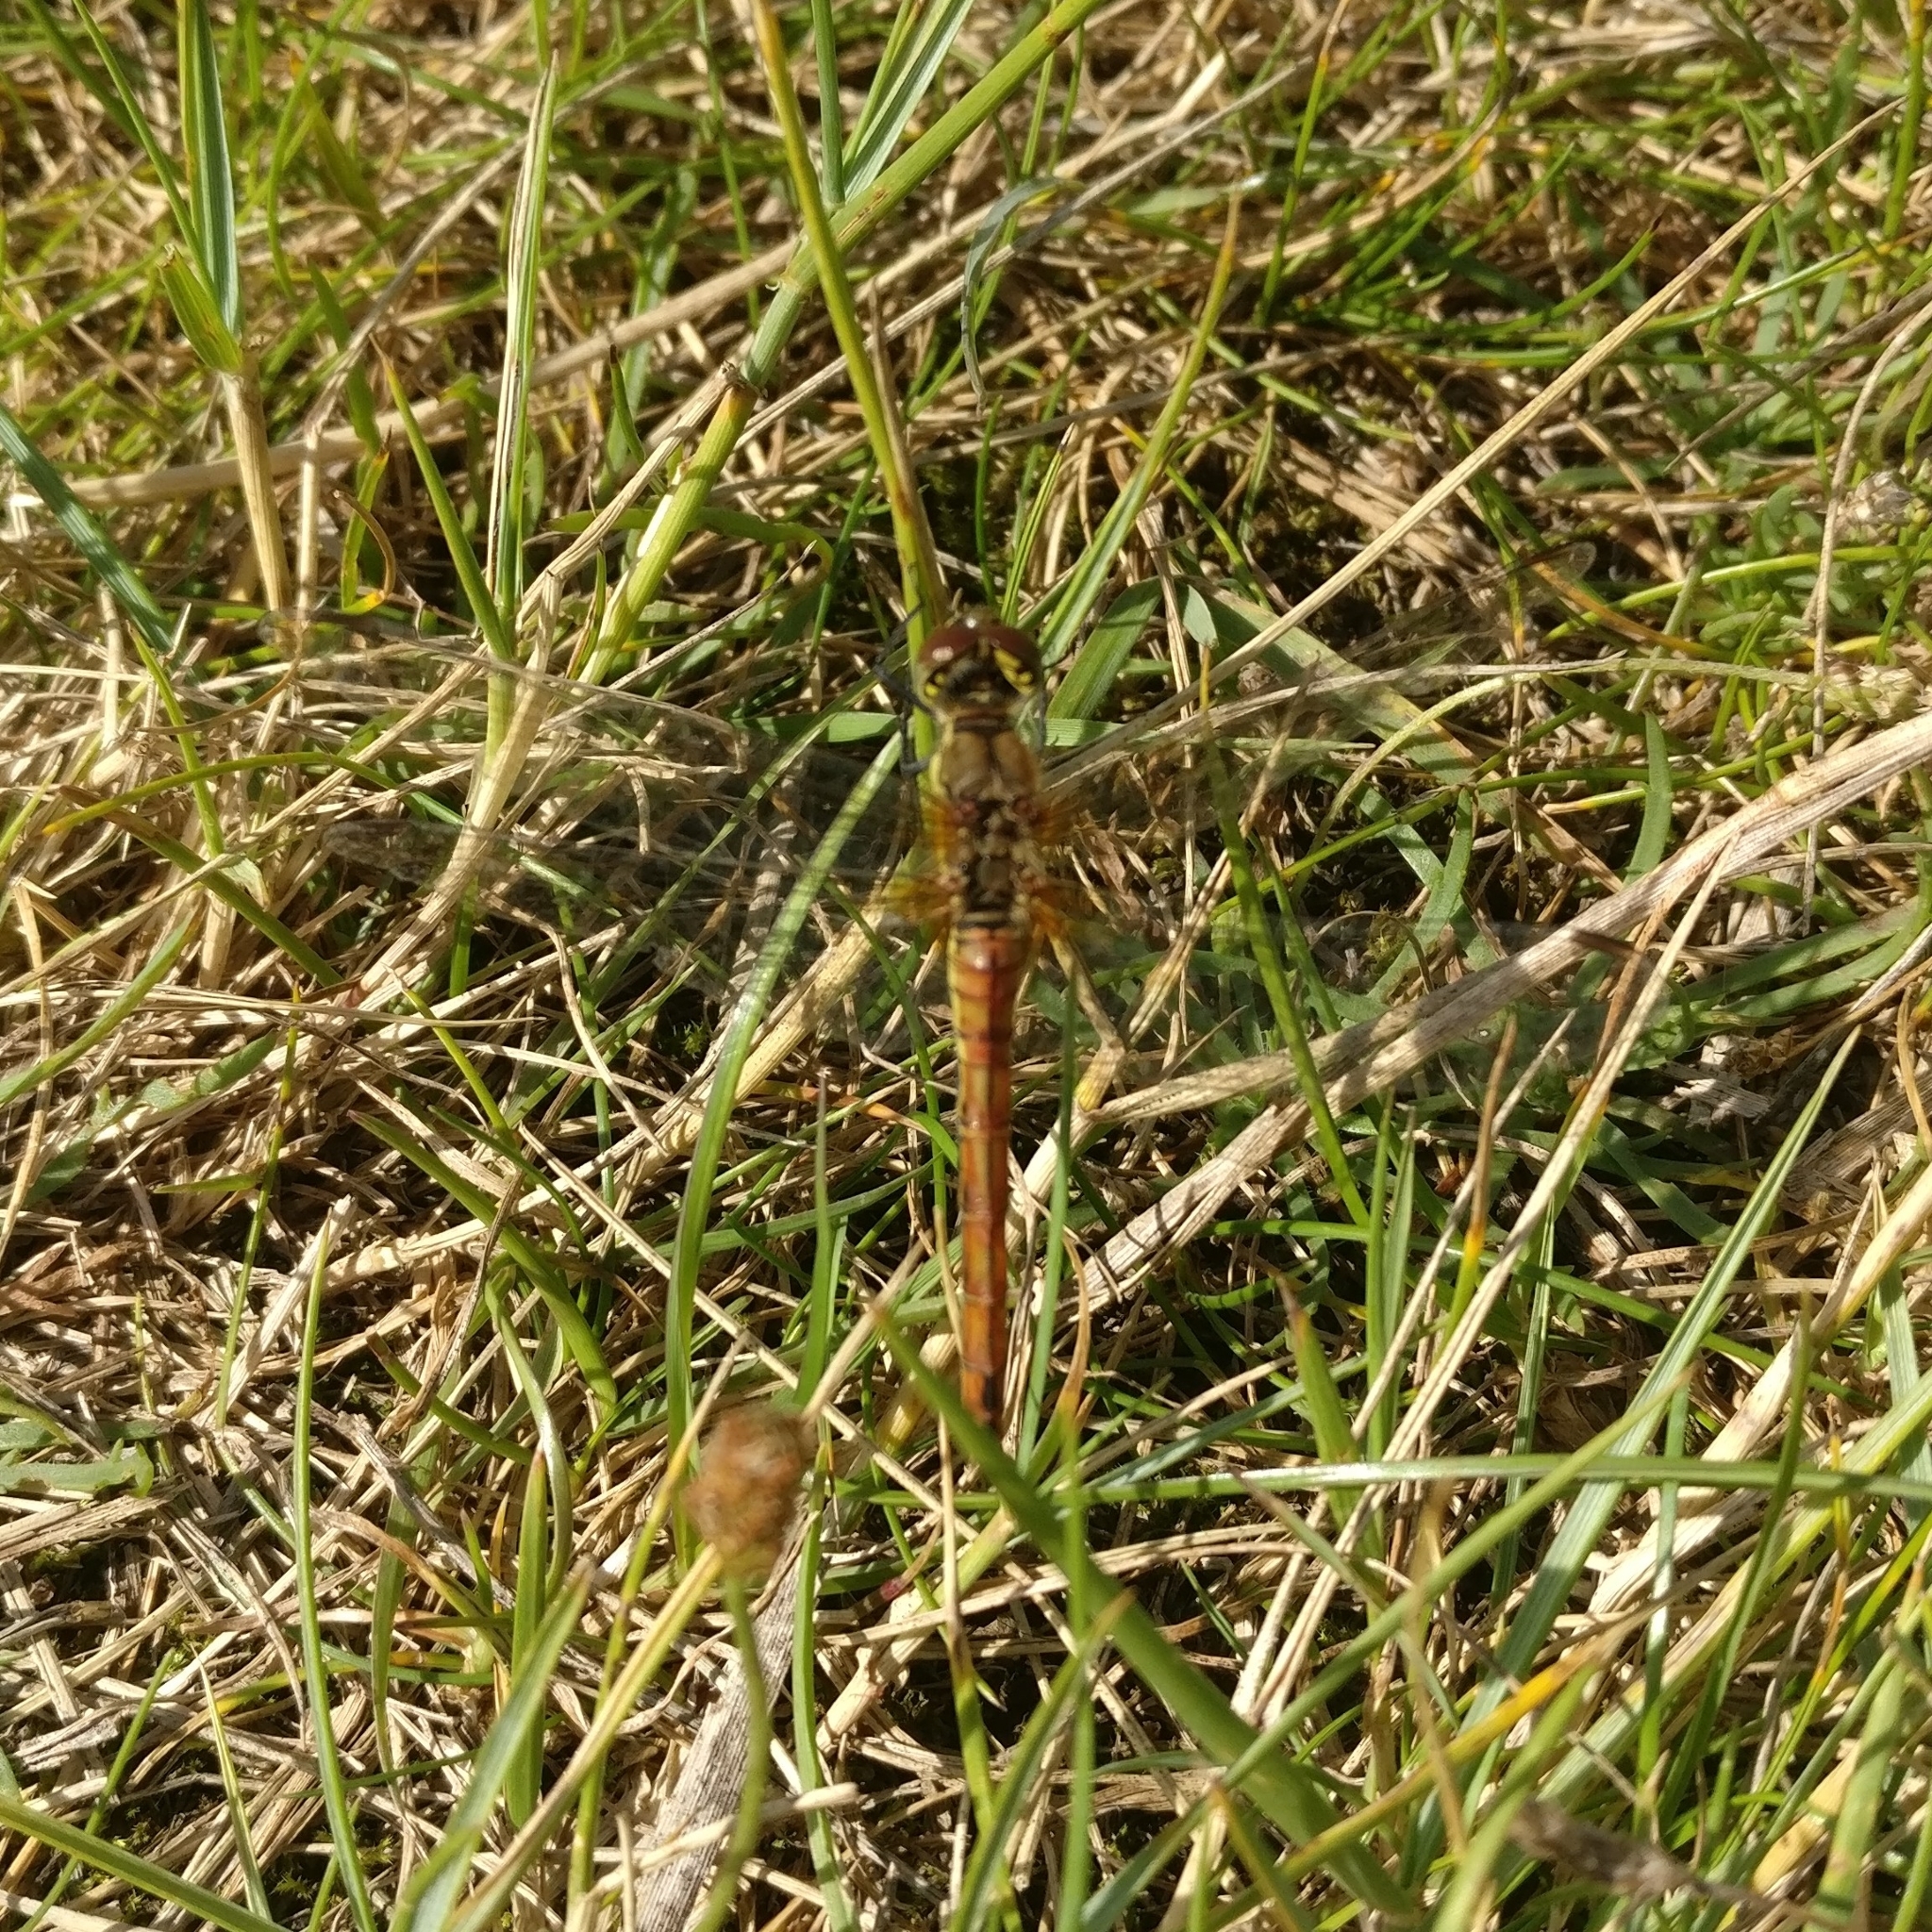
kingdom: Animalia
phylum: Arthropoda
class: Insecta
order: Odonata
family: Libellulidae
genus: Sympetrum
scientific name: Sympetrum sanguineum
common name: Ruddy darter
